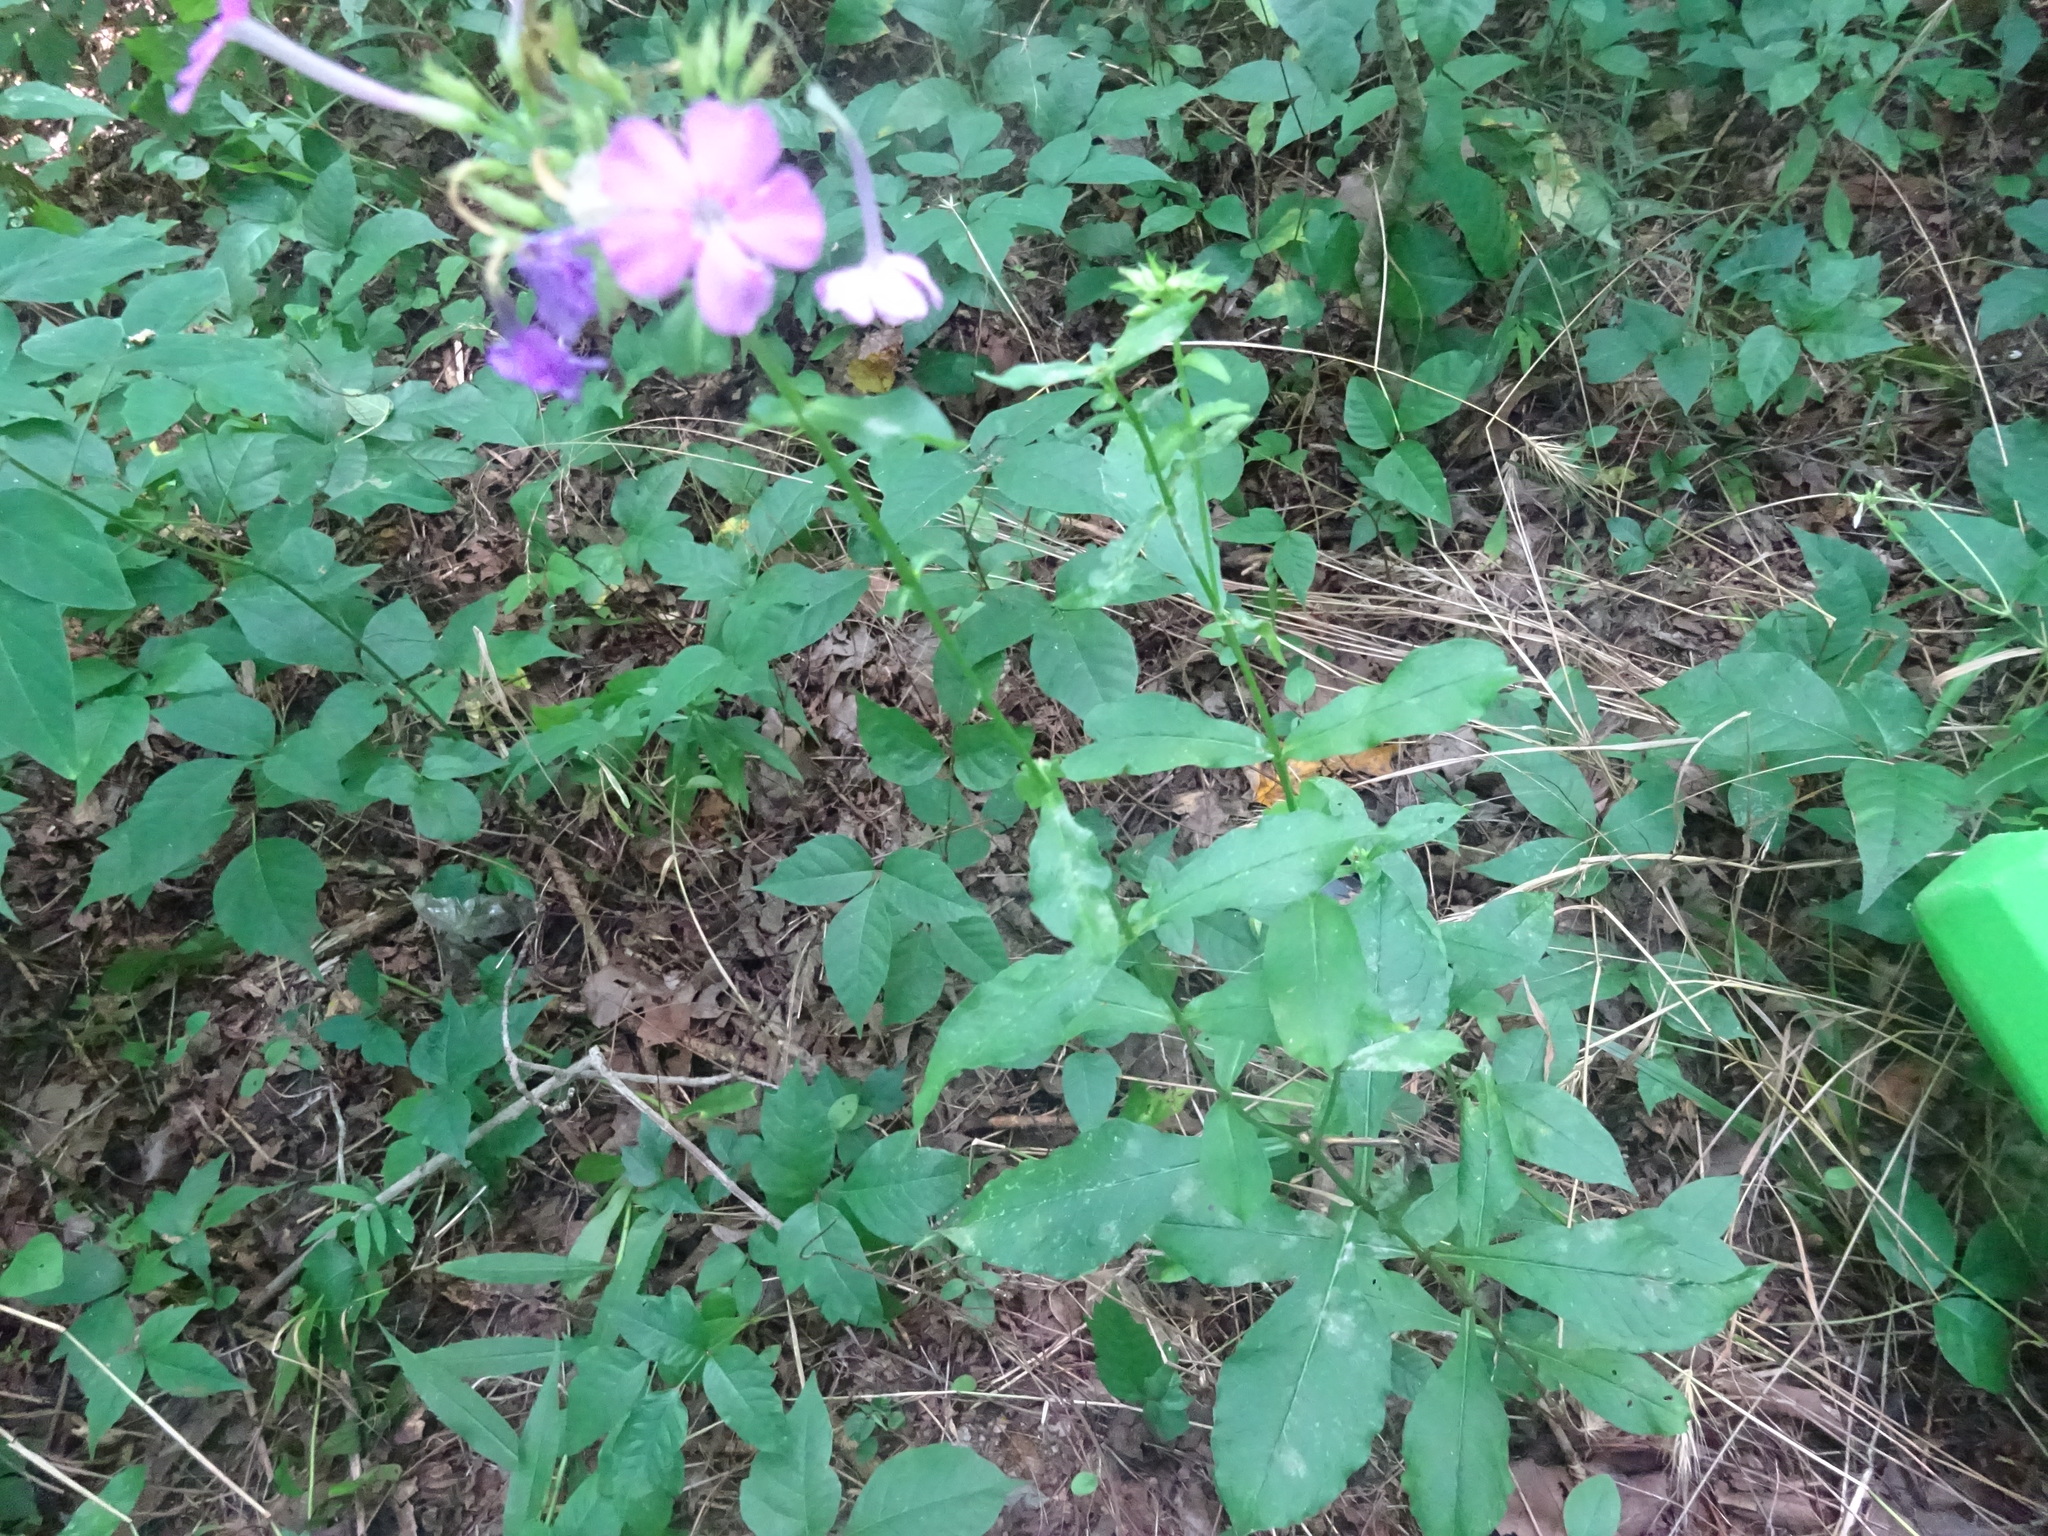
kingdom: Plantae
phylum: Tracheophyta
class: Magnoliopsida
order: Ericales
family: Polemoniaceae
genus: Phlox
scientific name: Phlox paniculata
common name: Fall phlox
